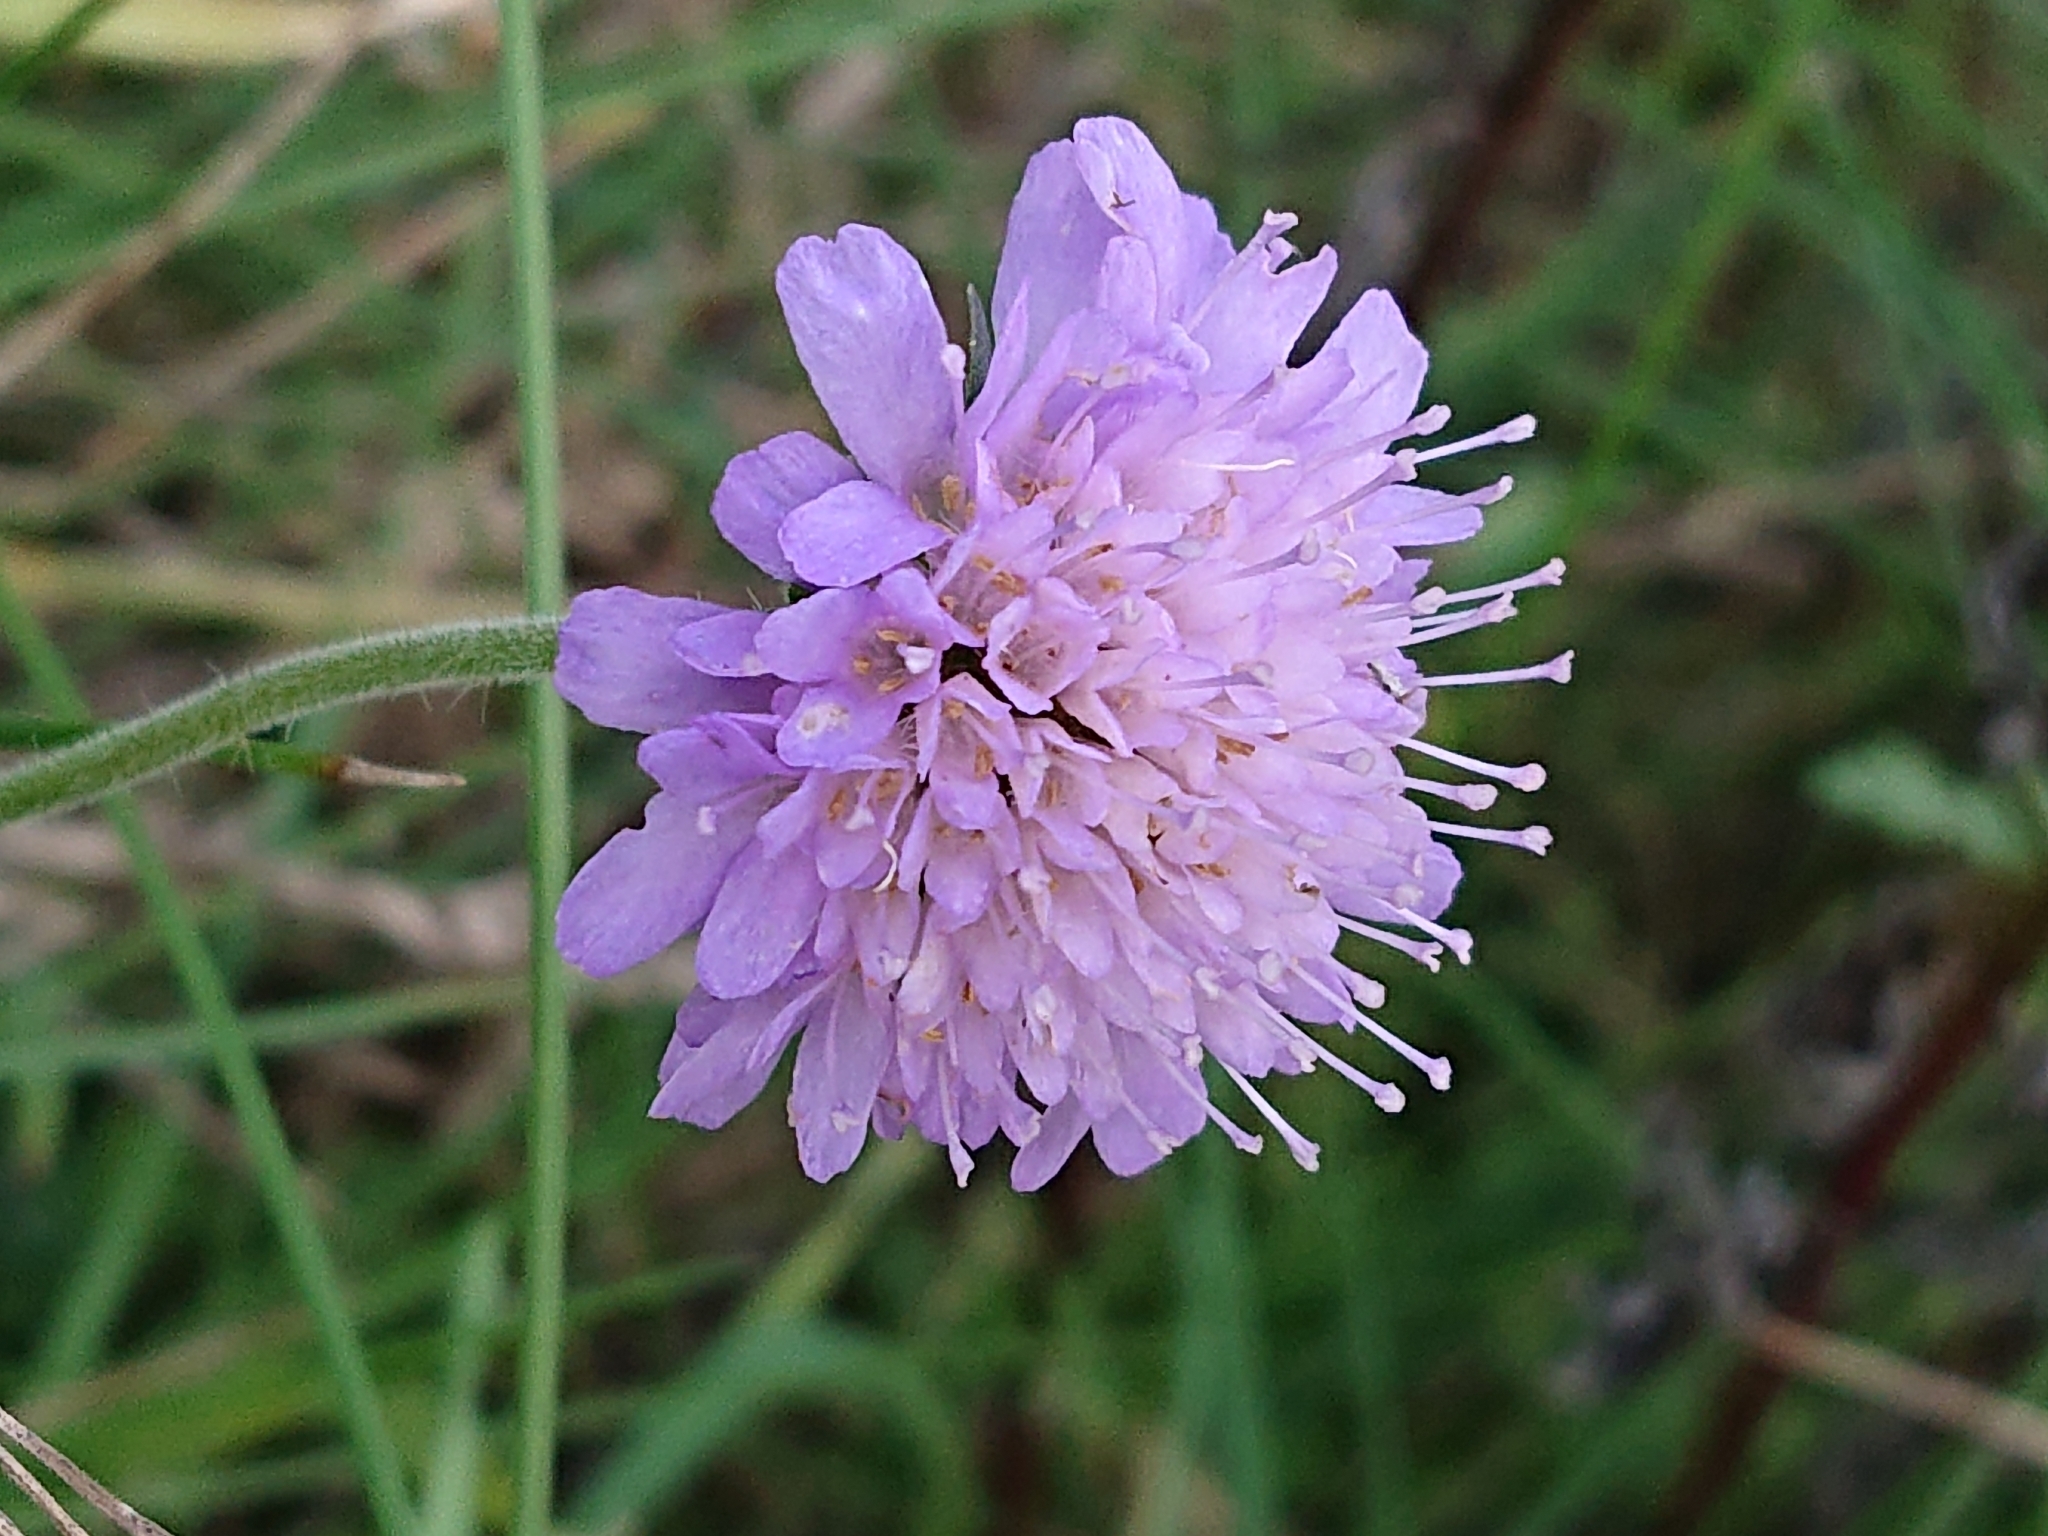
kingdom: Plantae
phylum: Tracheophyta
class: Magnoliopsida
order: Dipsacales
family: Caprifoliaceae
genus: Knautia
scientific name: Knautia arvensis
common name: Field scabiosa
